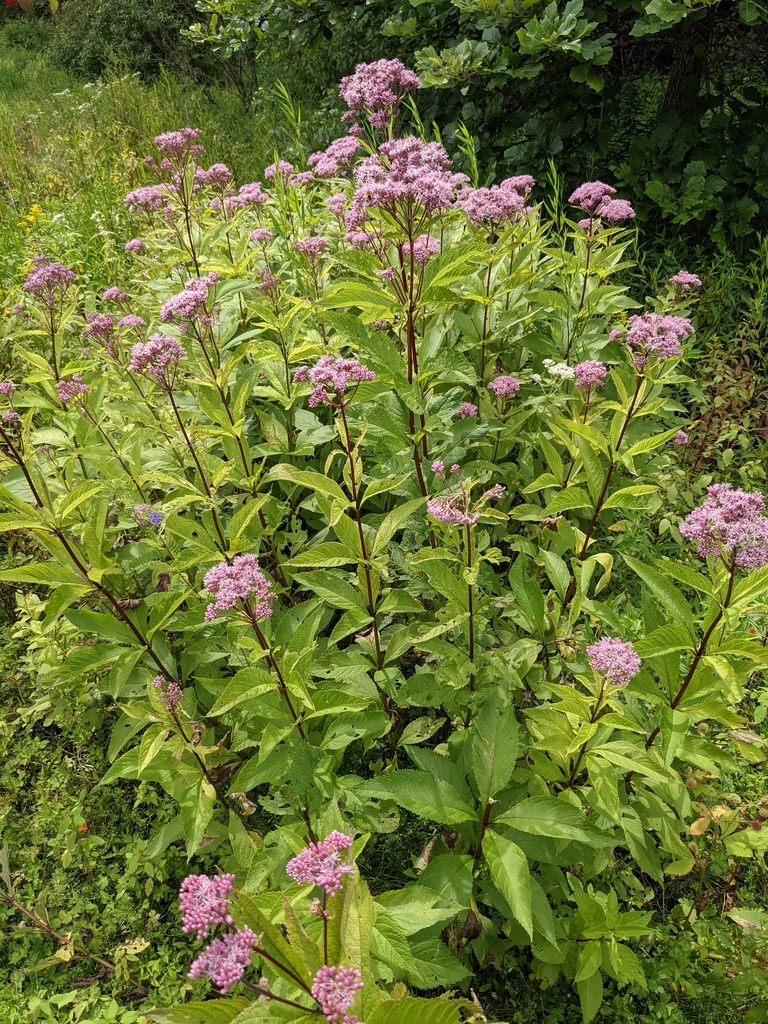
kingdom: Plantae
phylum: Tracheophyta
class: Magnoliopsida
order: Asterales
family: Asteraceae
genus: Eutrochium
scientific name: Eutrochium maculatum
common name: Spotted joe pye weed
